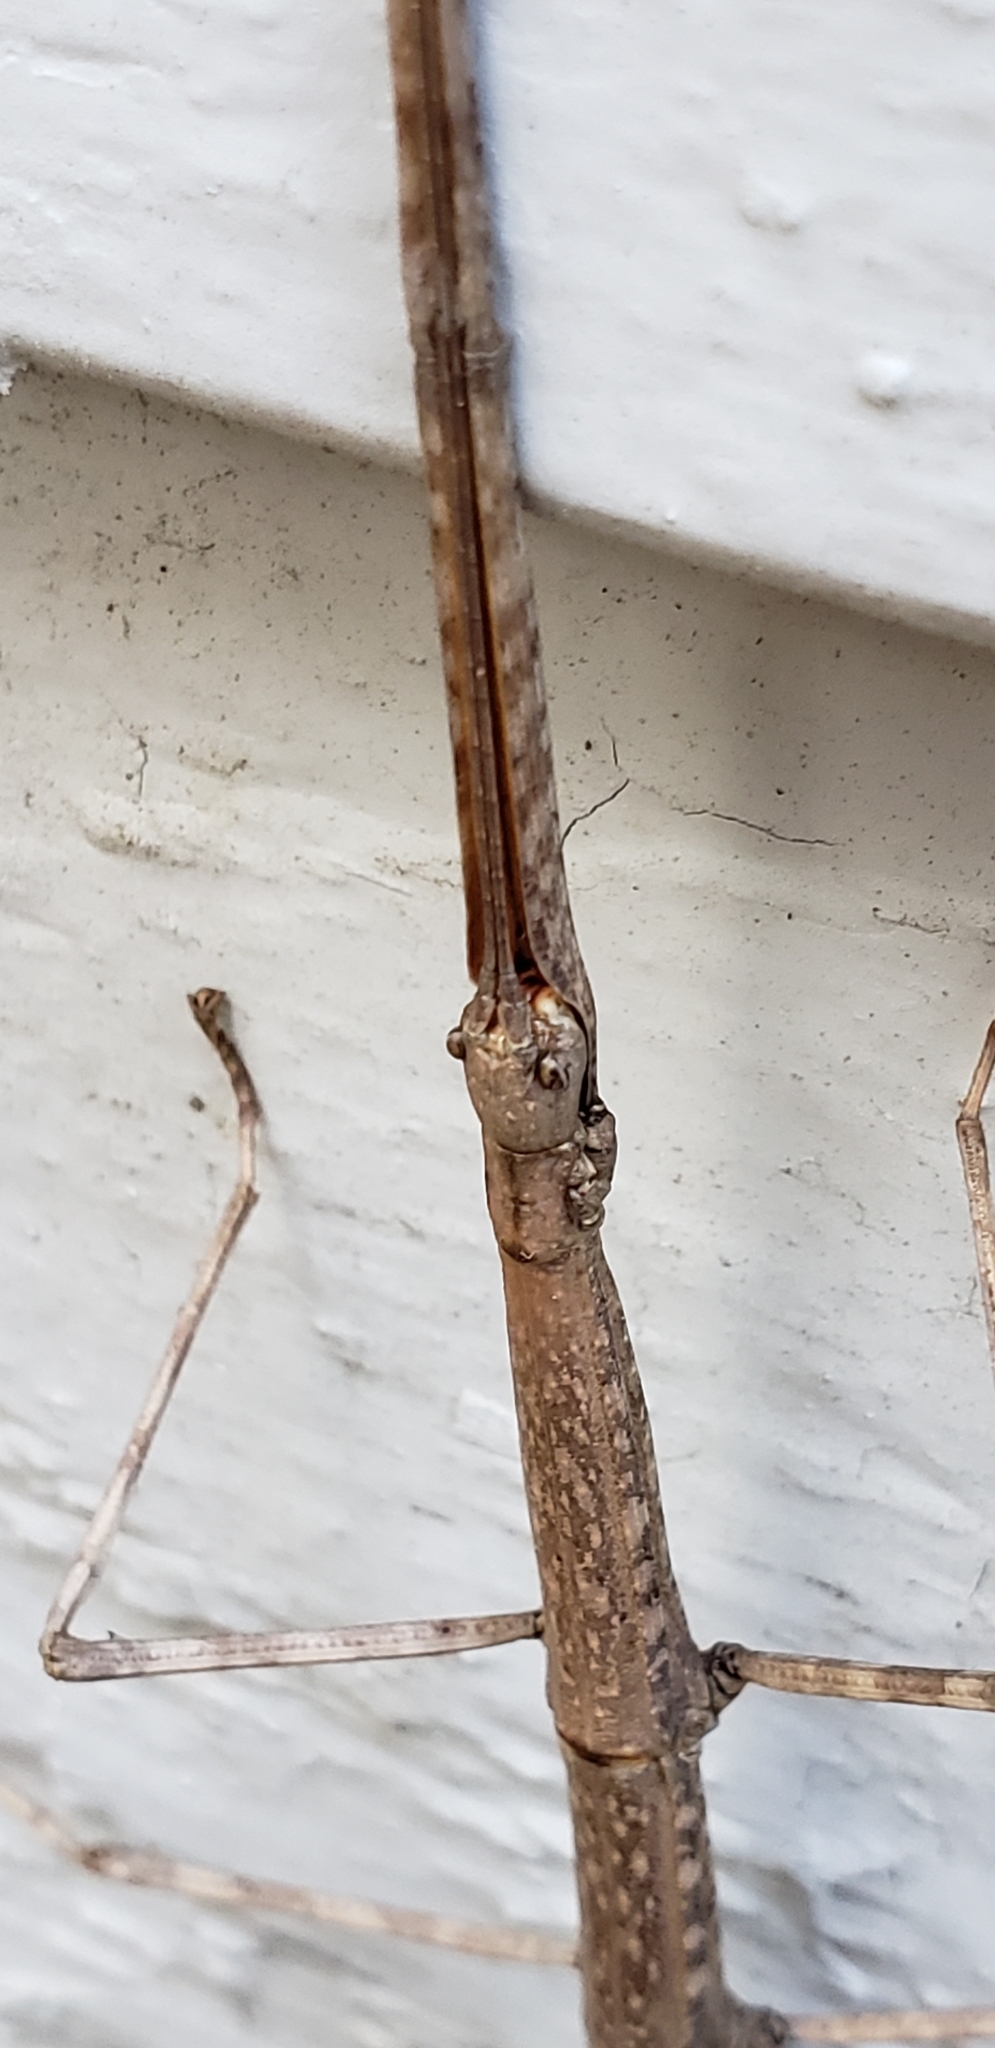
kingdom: Animalia
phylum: Arthropoda
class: Insecta
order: Phasmida
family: Diapheromeridae
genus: Diapheromera
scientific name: Diapheromera femorata
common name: Common american walkingstick
